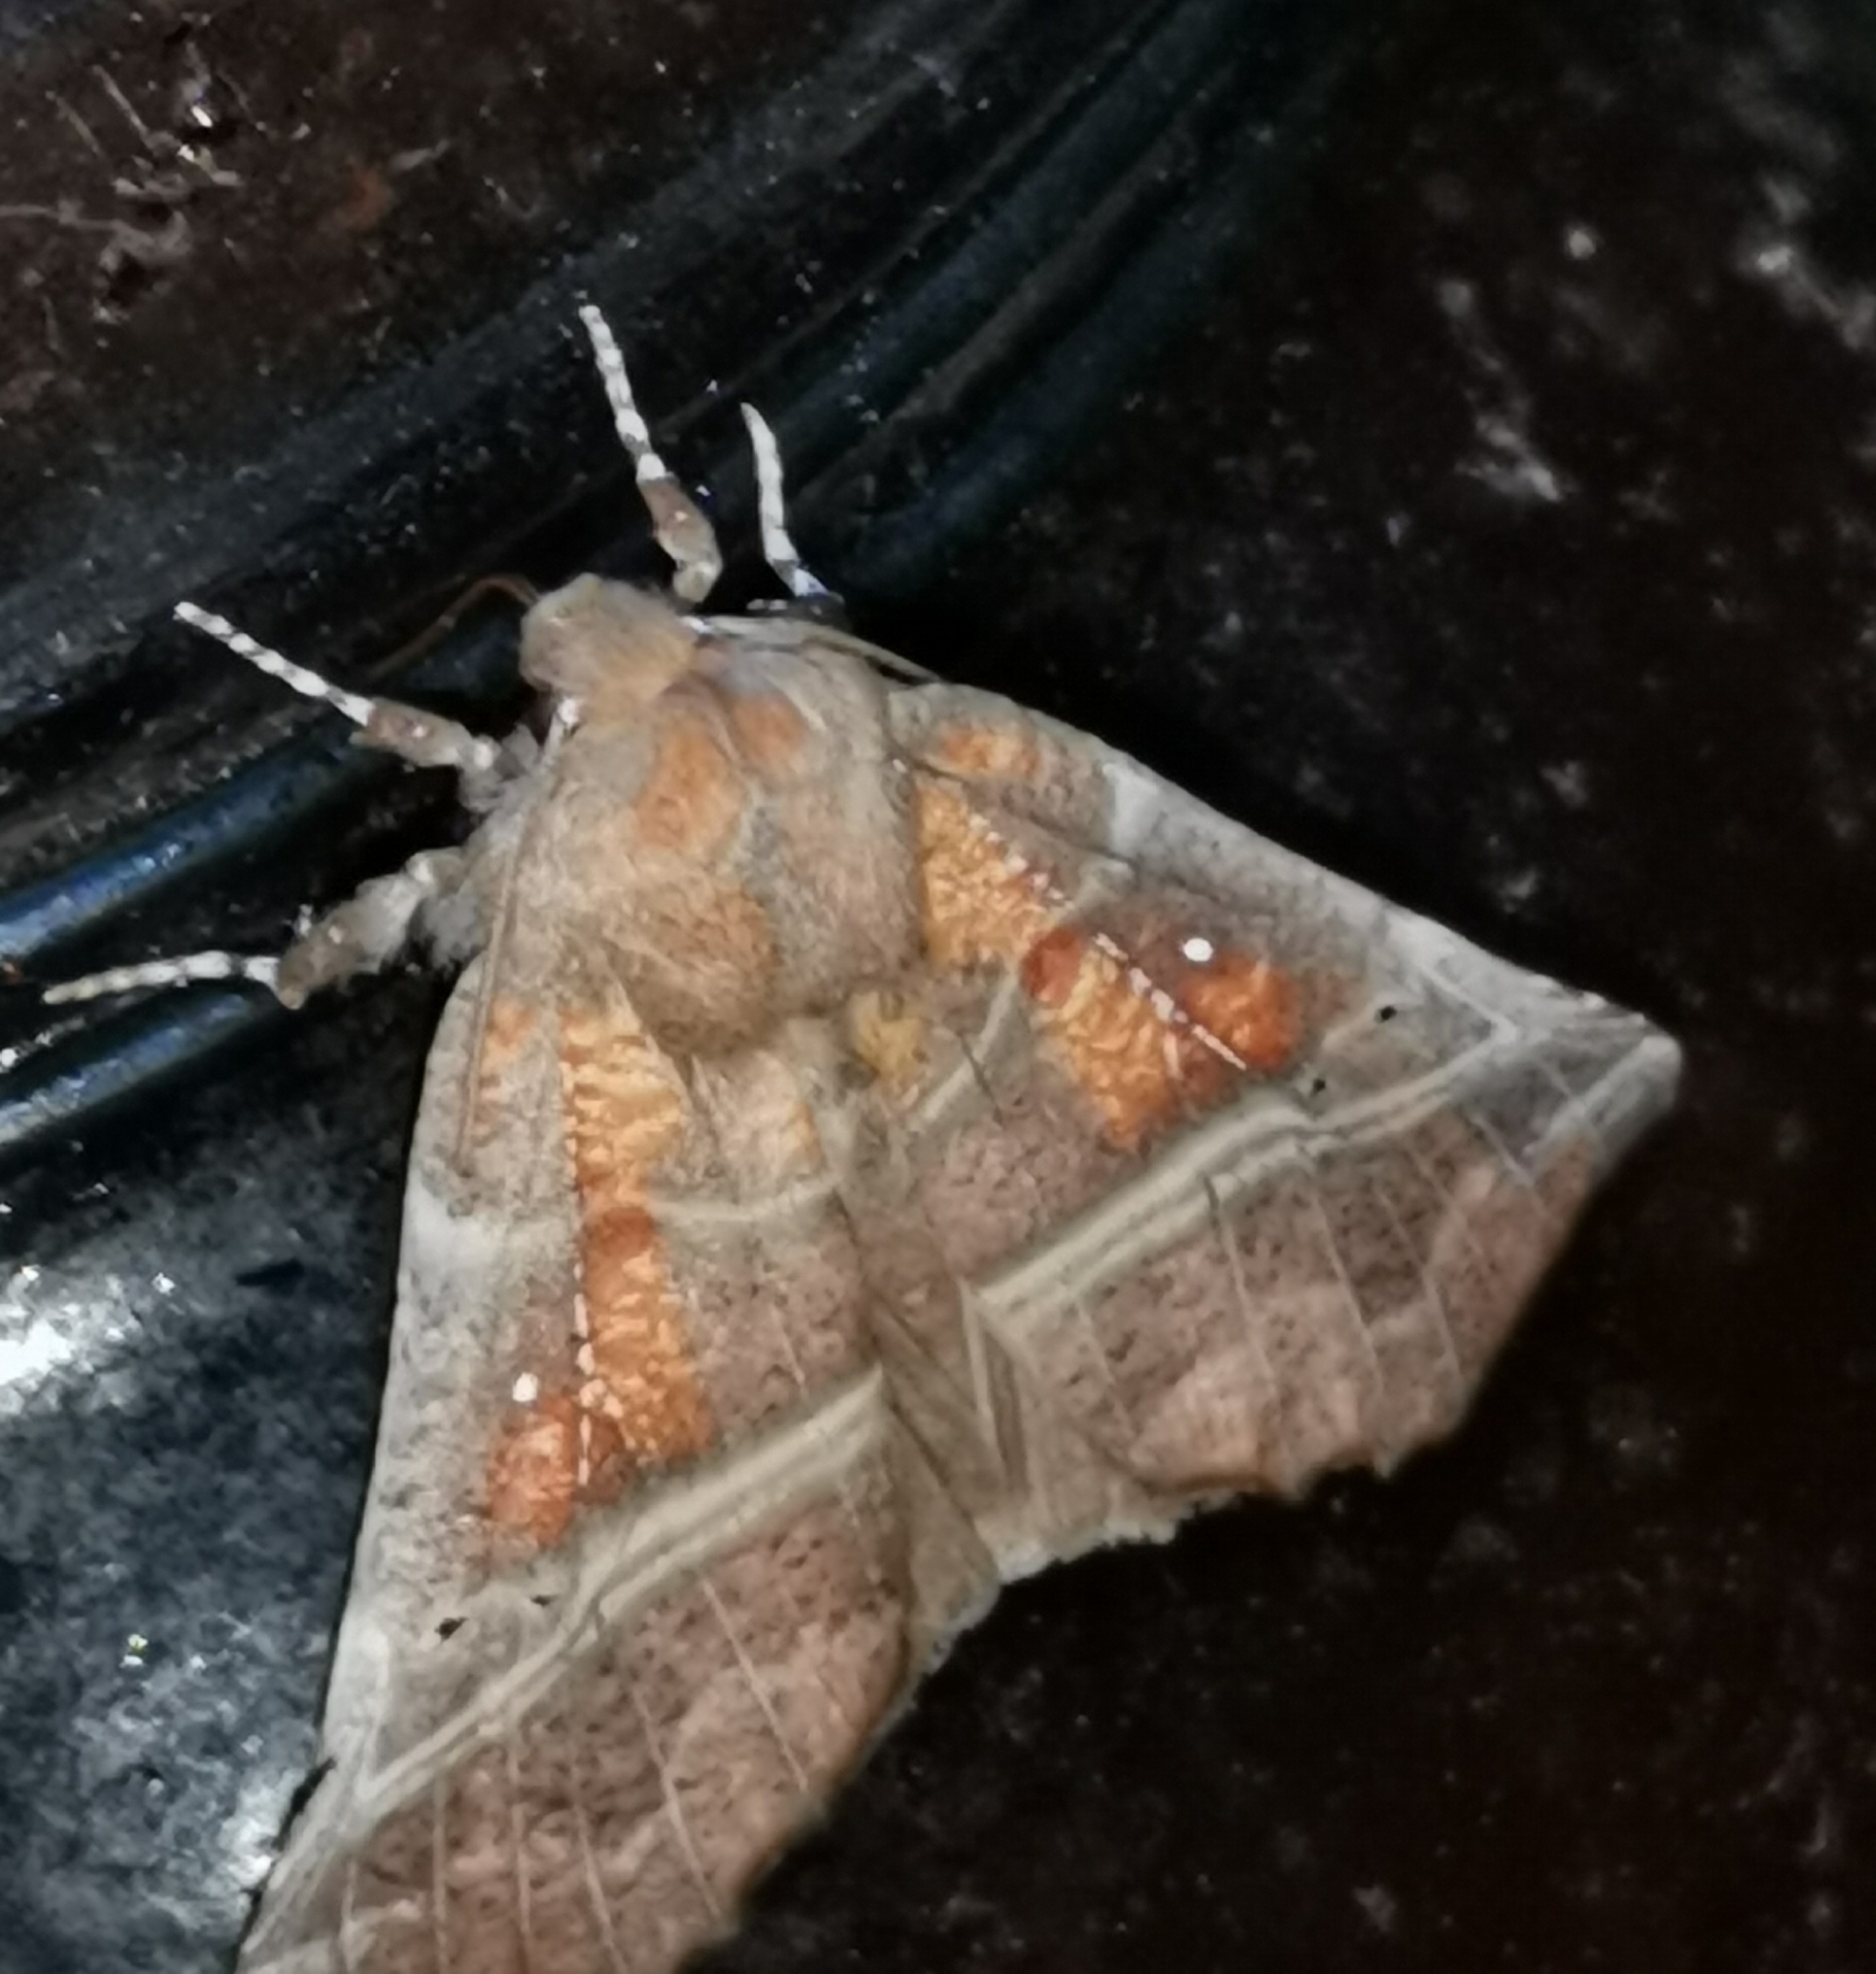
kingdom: Animalia
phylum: Arthropoda
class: Insecta
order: Lepidoptera
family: Erebidae
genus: Scoliopteryx
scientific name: Scoliopteryx libatrix
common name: Herald
